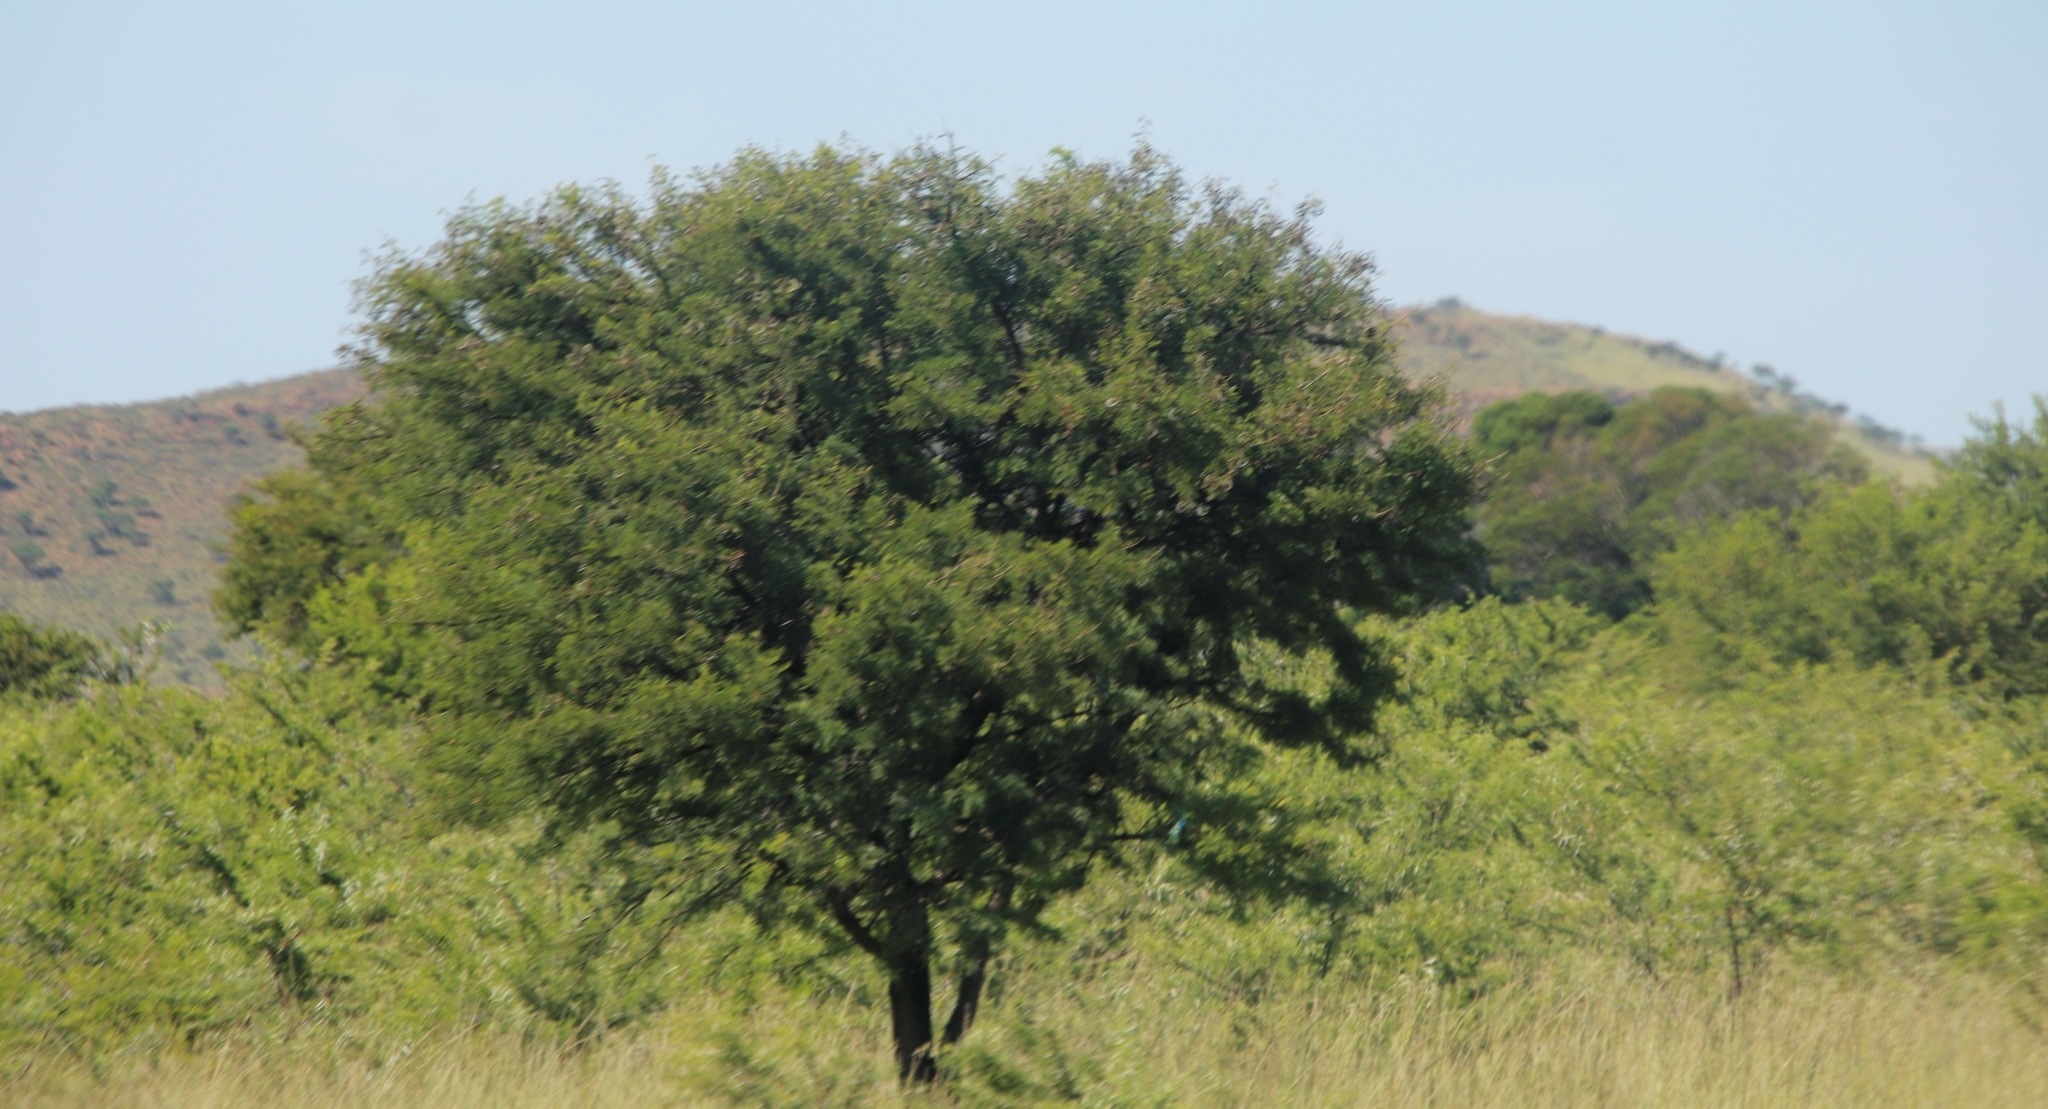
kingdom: Plantae
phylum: Tracheophyta
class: Magnoliopsida
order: Fabales
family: Fabaceae
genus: Vachellia
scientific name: Vachellia karroo
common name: Sweet thorn
